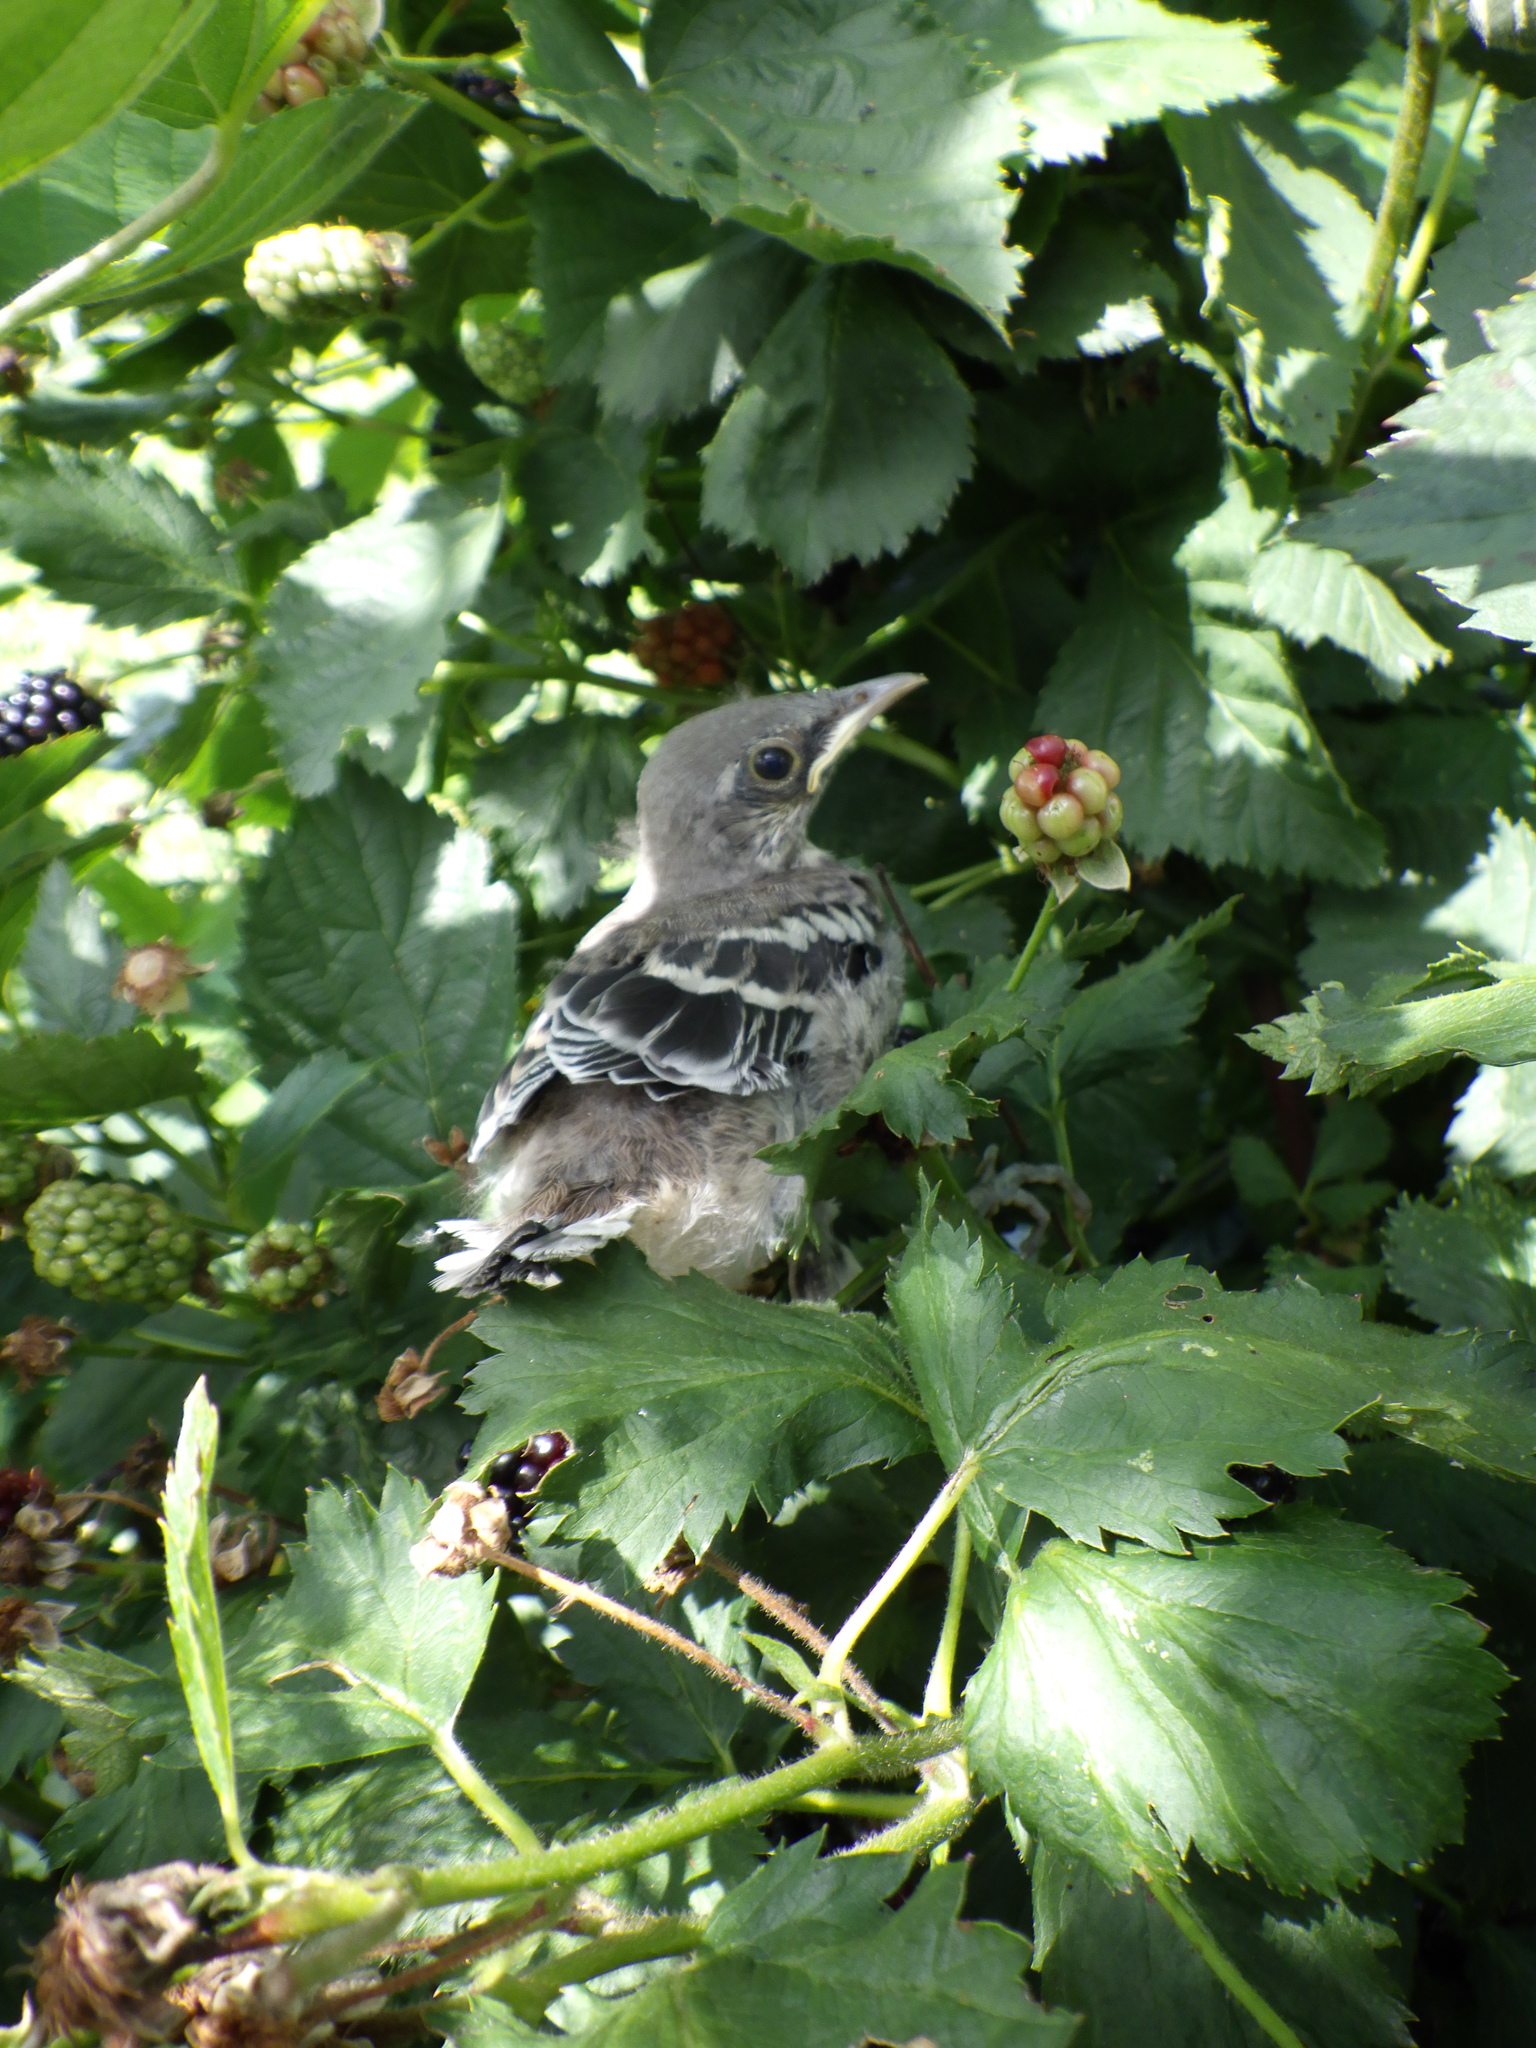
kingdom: Animalia
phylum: Chordata
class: Aves
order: Passeriformes
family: Mimidae
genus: Mimus
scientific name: Mimus polyglottos
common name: Northern mockingbird
